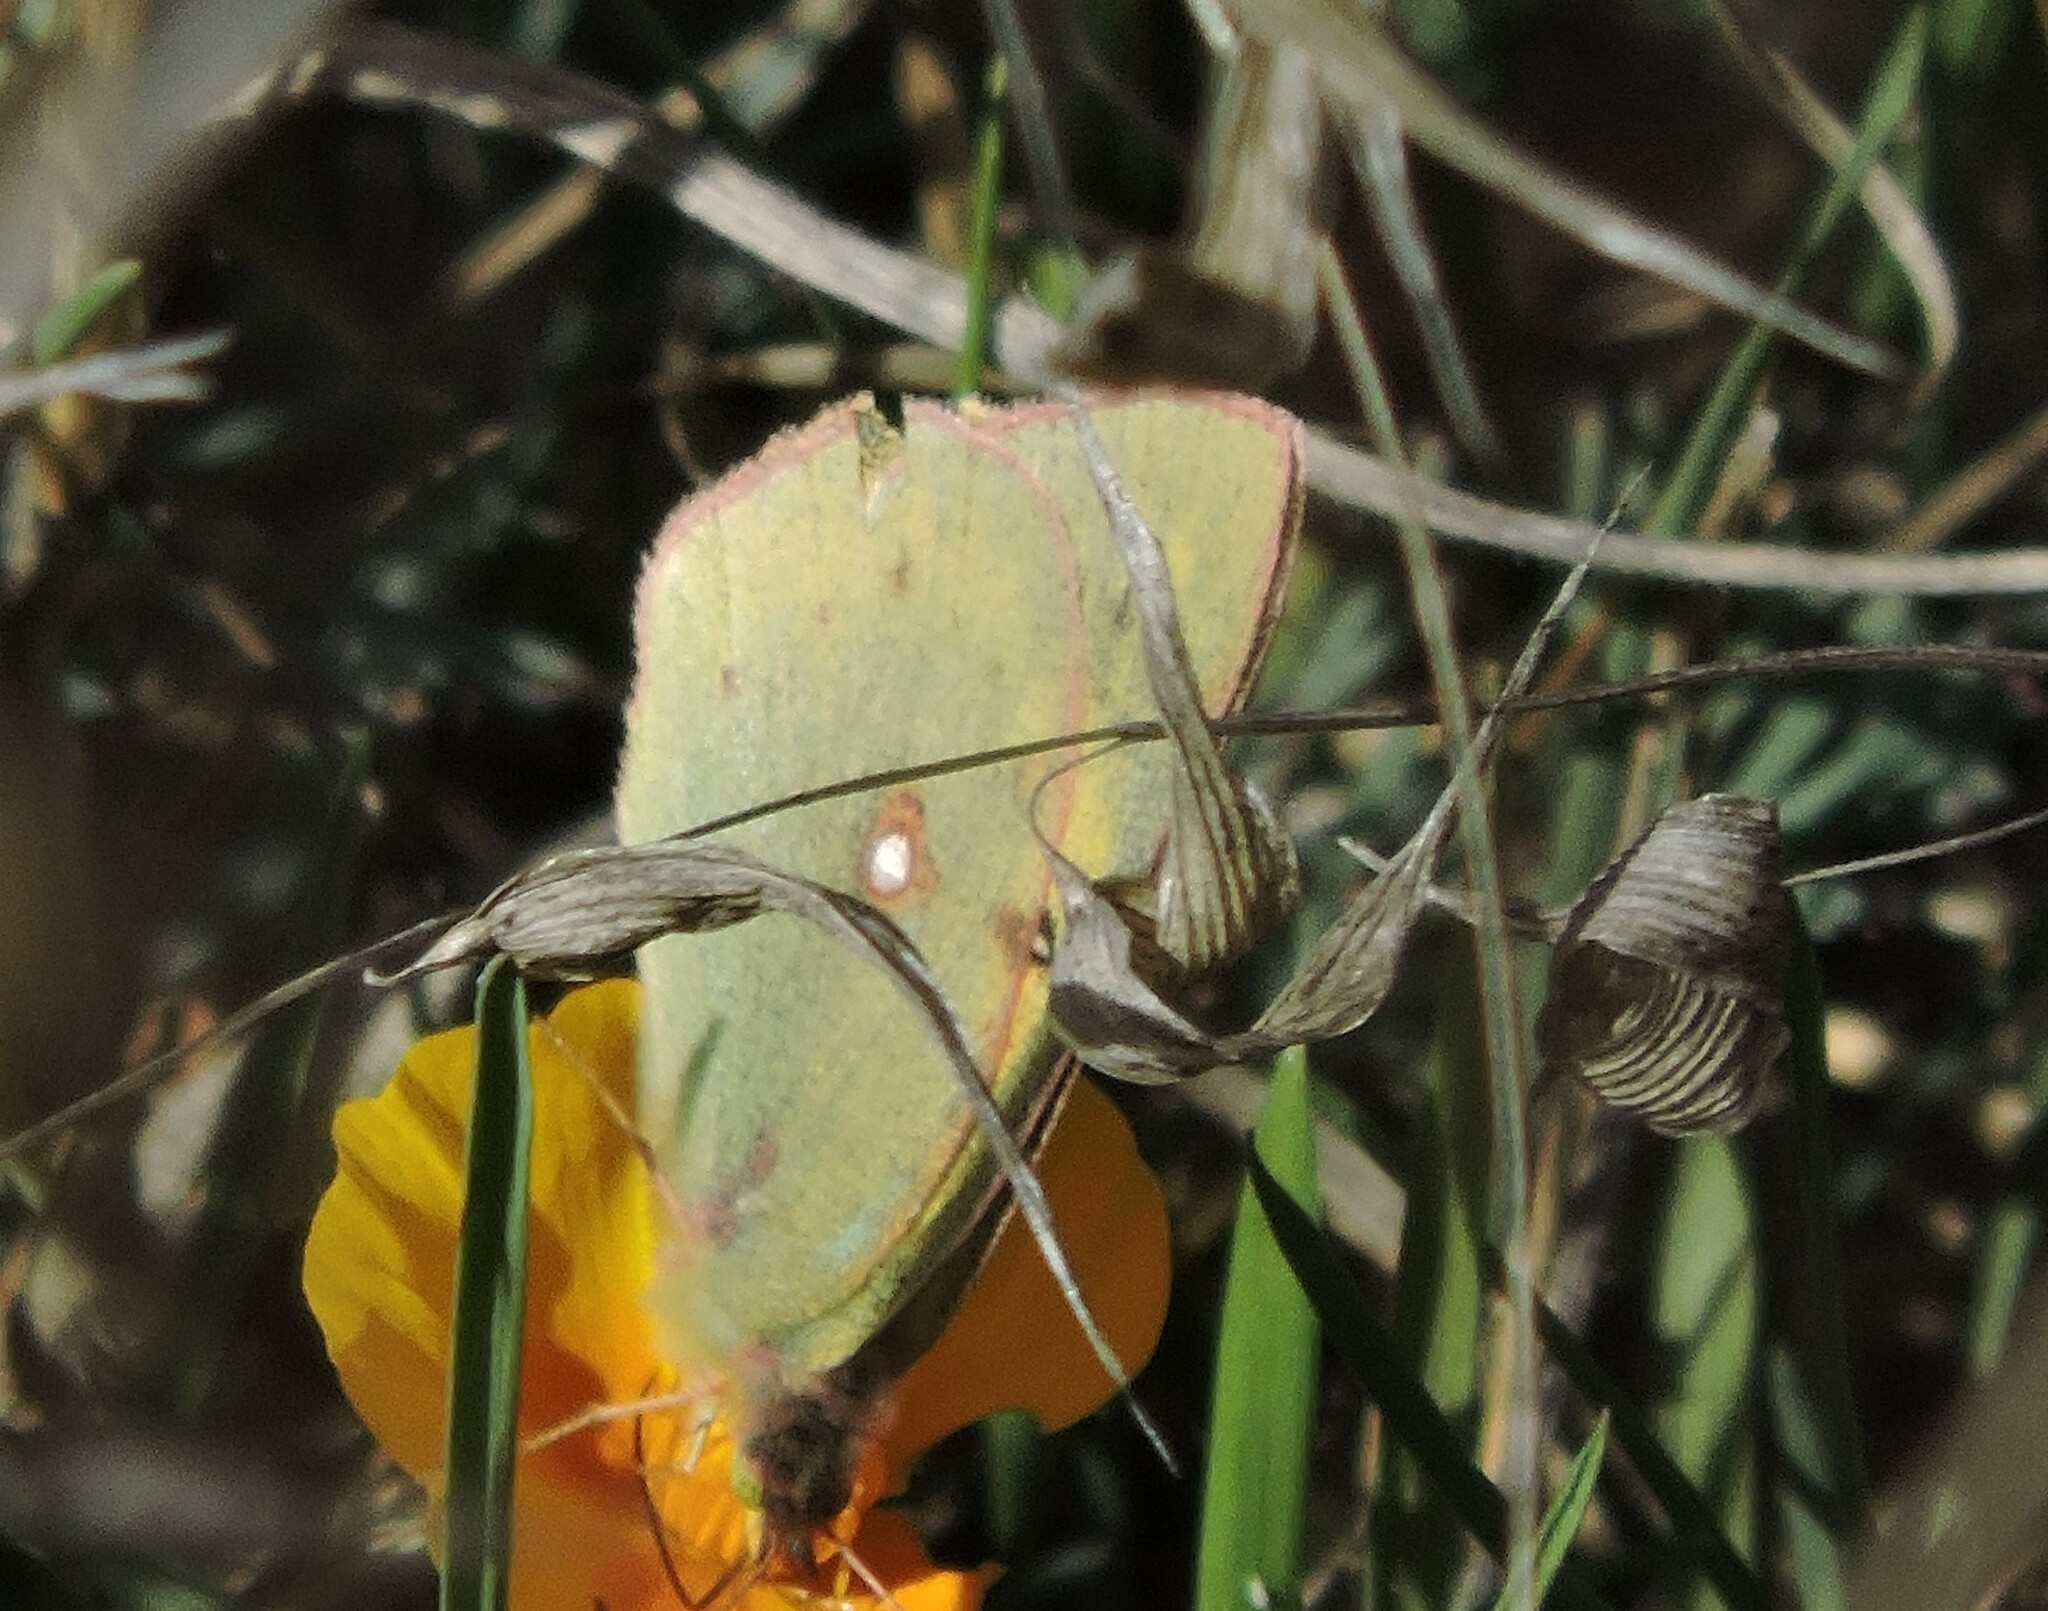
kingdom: Animalia
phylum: Arthropoda
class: Insecta
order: Lepidoptera
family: Pieridae
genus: Colias
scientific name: Colias eurytheme
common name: Alfalfa butterfly
